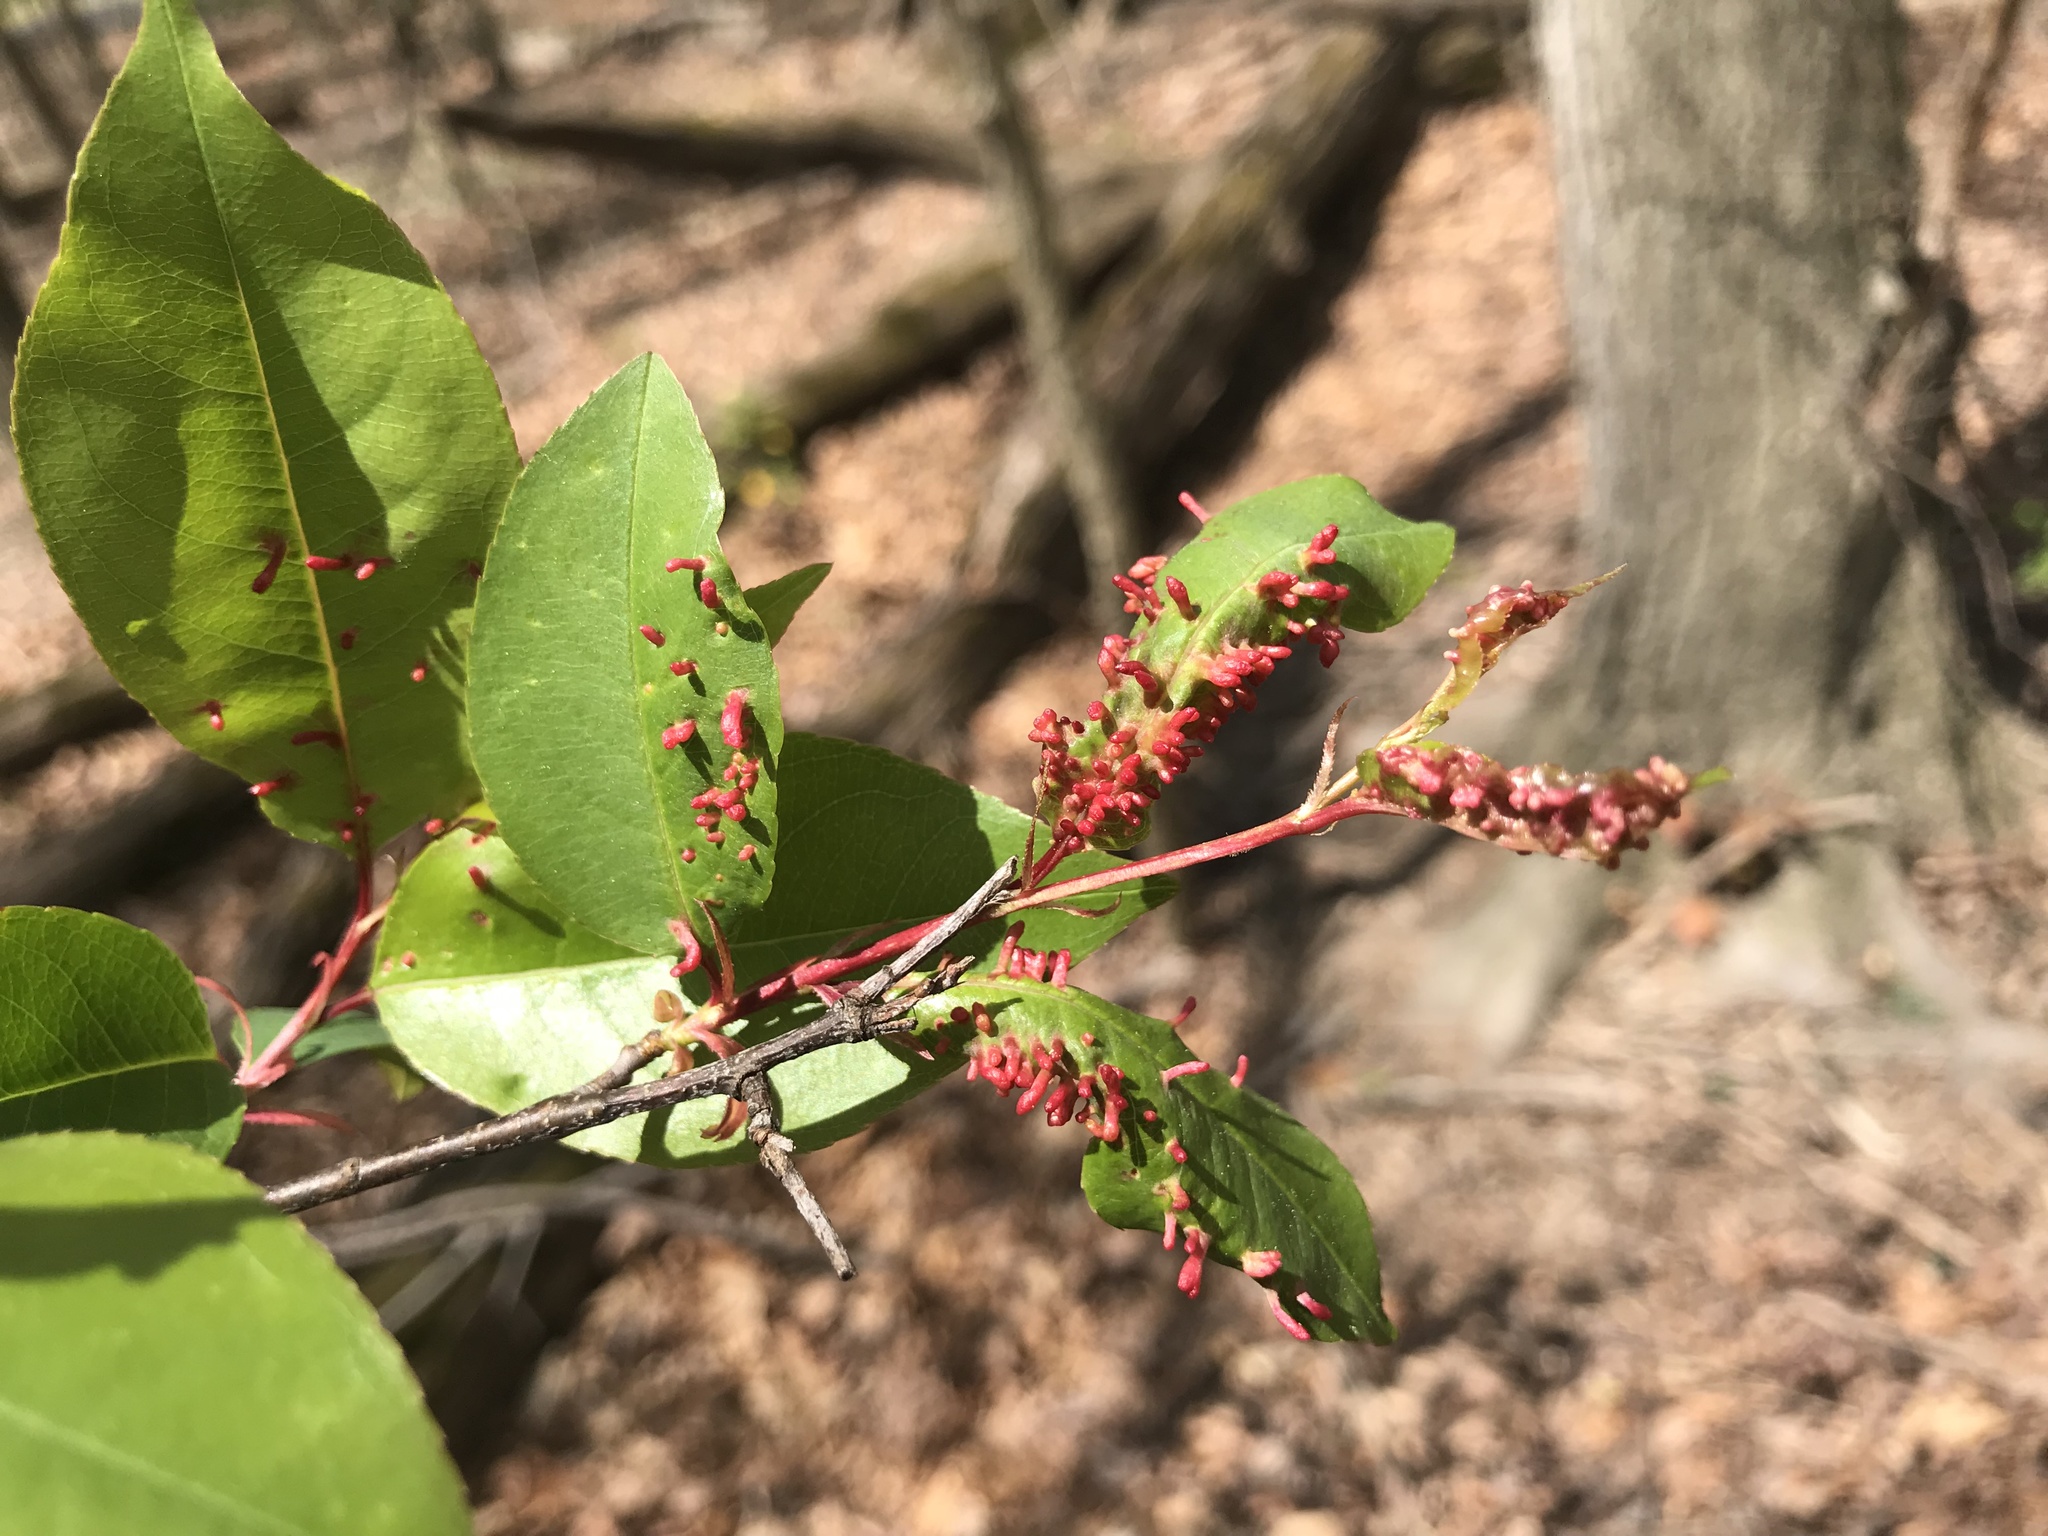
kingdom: Animalia
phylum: Arthropoda
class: Arachnida
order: Trombidiformes
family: Eriophyidae
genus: Eriophyes
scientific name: Eriophyes
